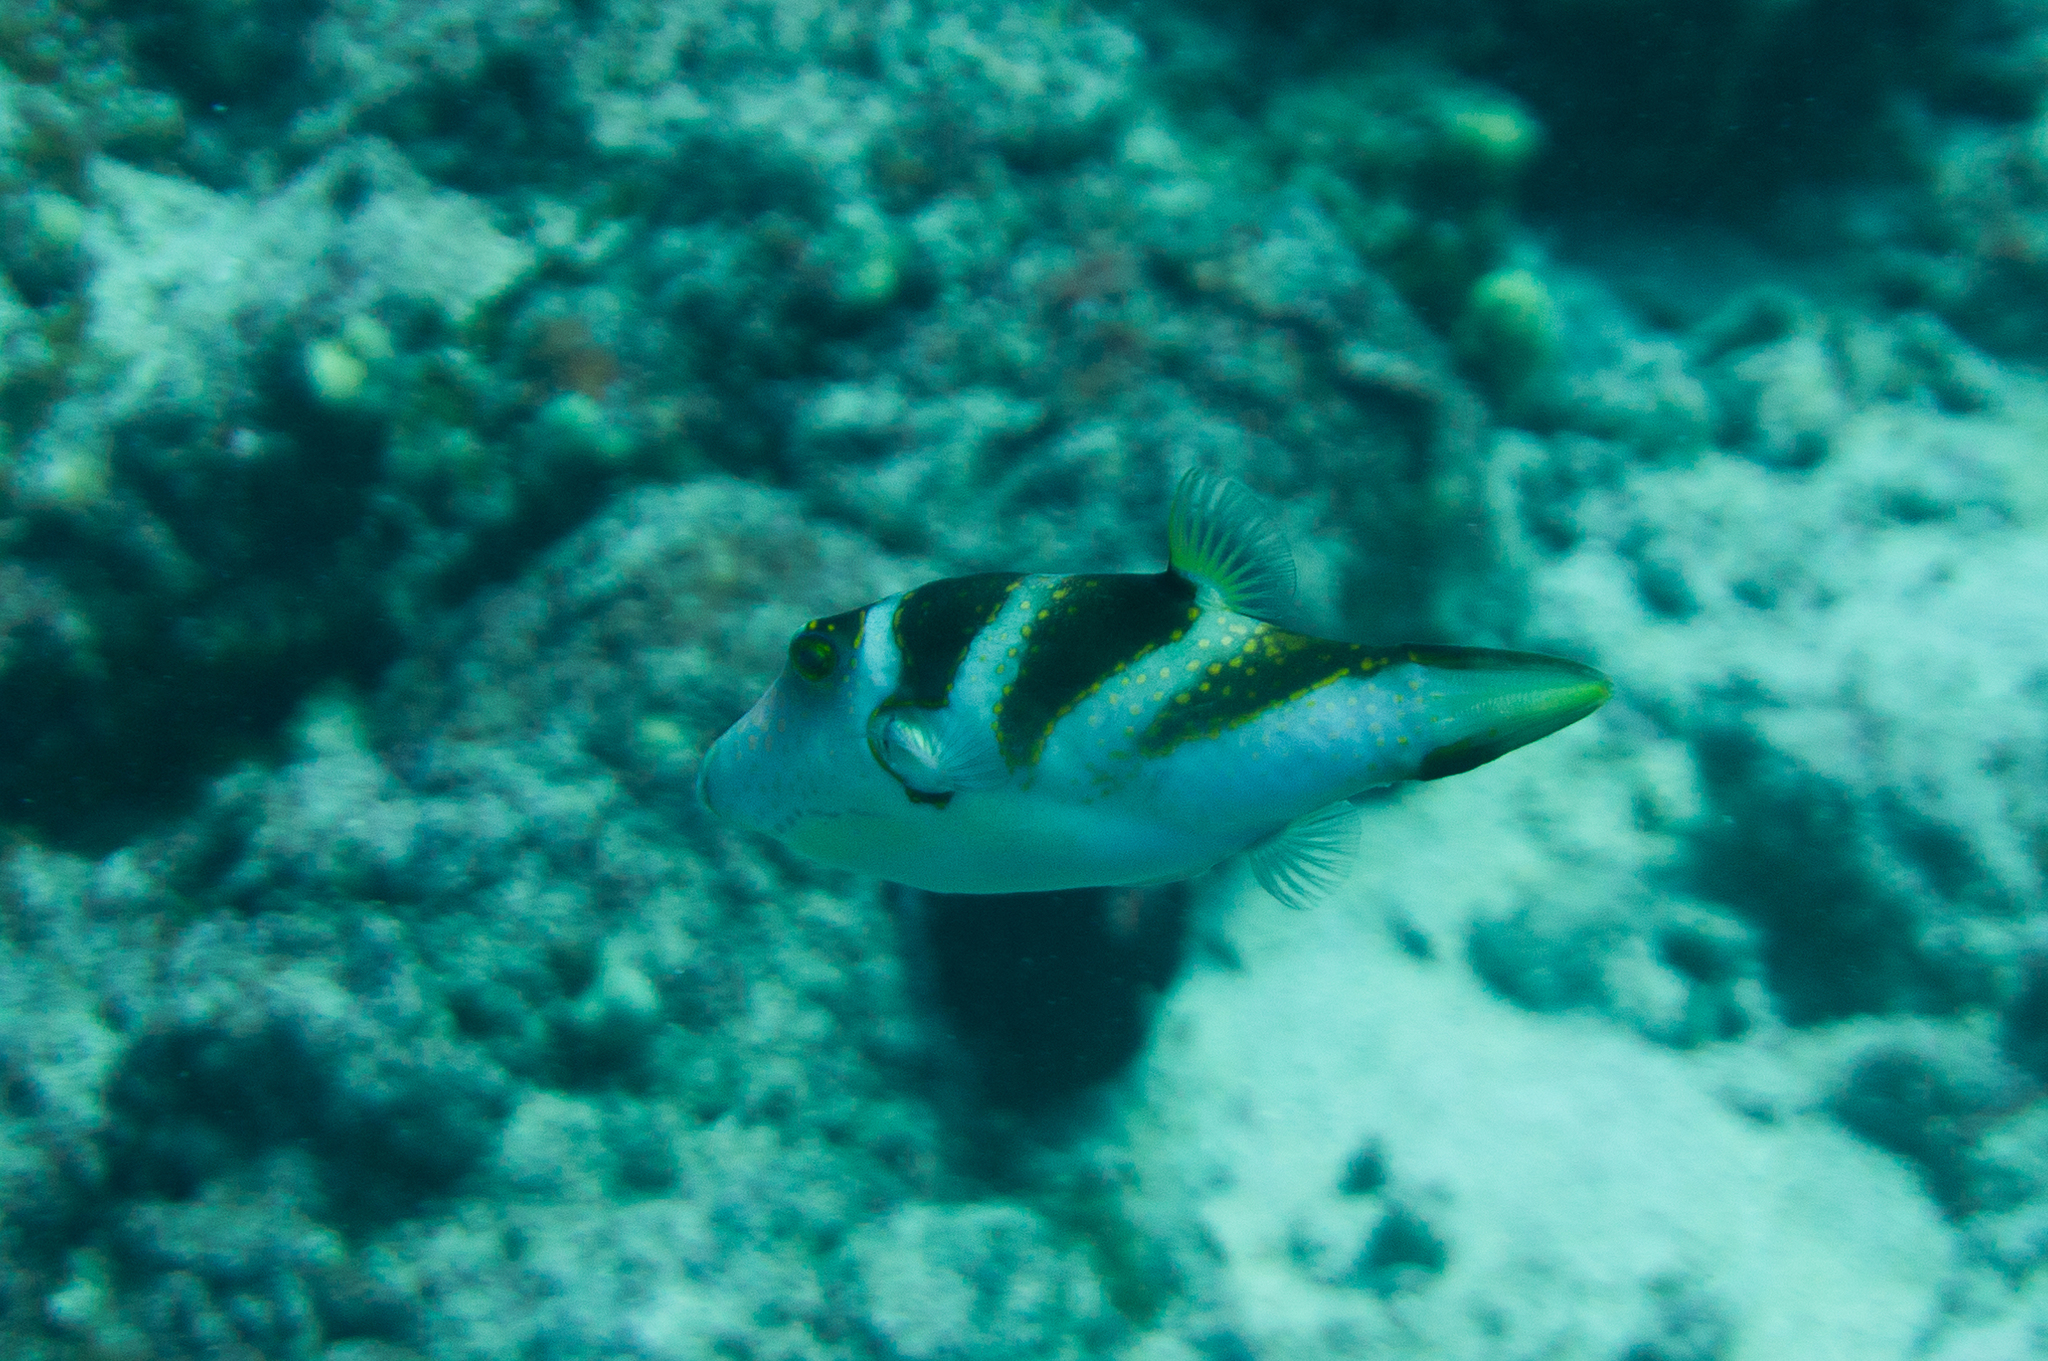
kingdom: Animalia
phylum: Chordata
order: Tetraodontiformes
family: Tetraodontidae
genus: Canthigaster
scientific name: Canthigaster coronata
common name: Crown toby
